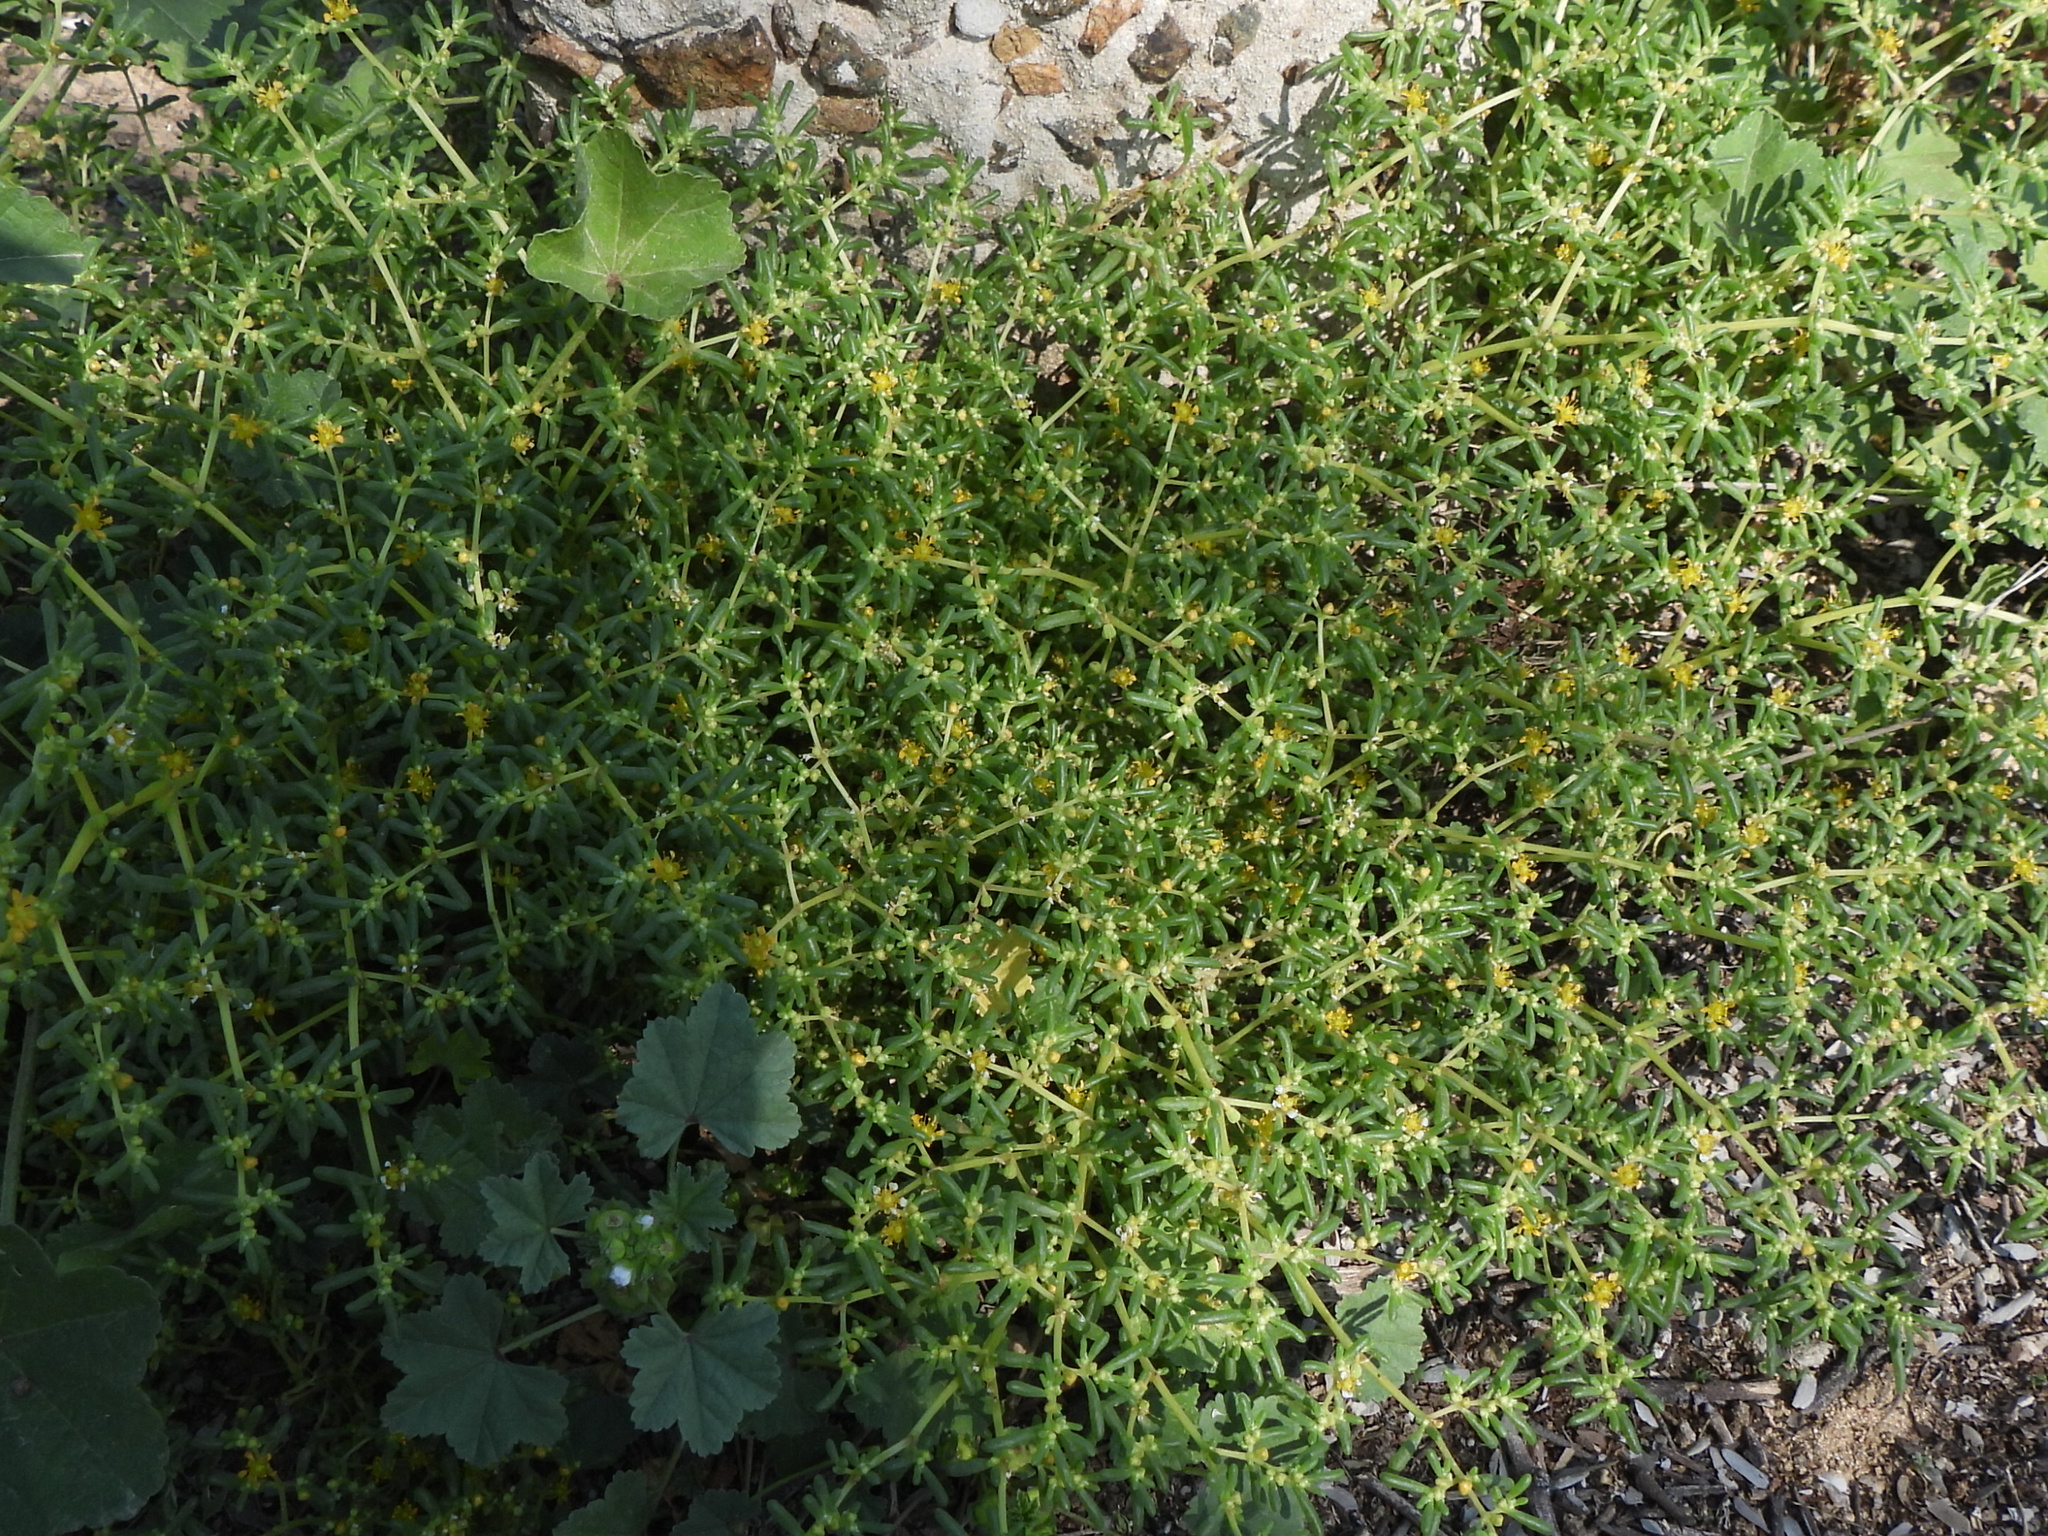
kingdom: Plantae
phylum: Tracheophyta
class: Magnoliopsida
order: Zygophyllales
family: Zygophyllaceae
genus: Tetraena
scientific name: Tetraena simplex
